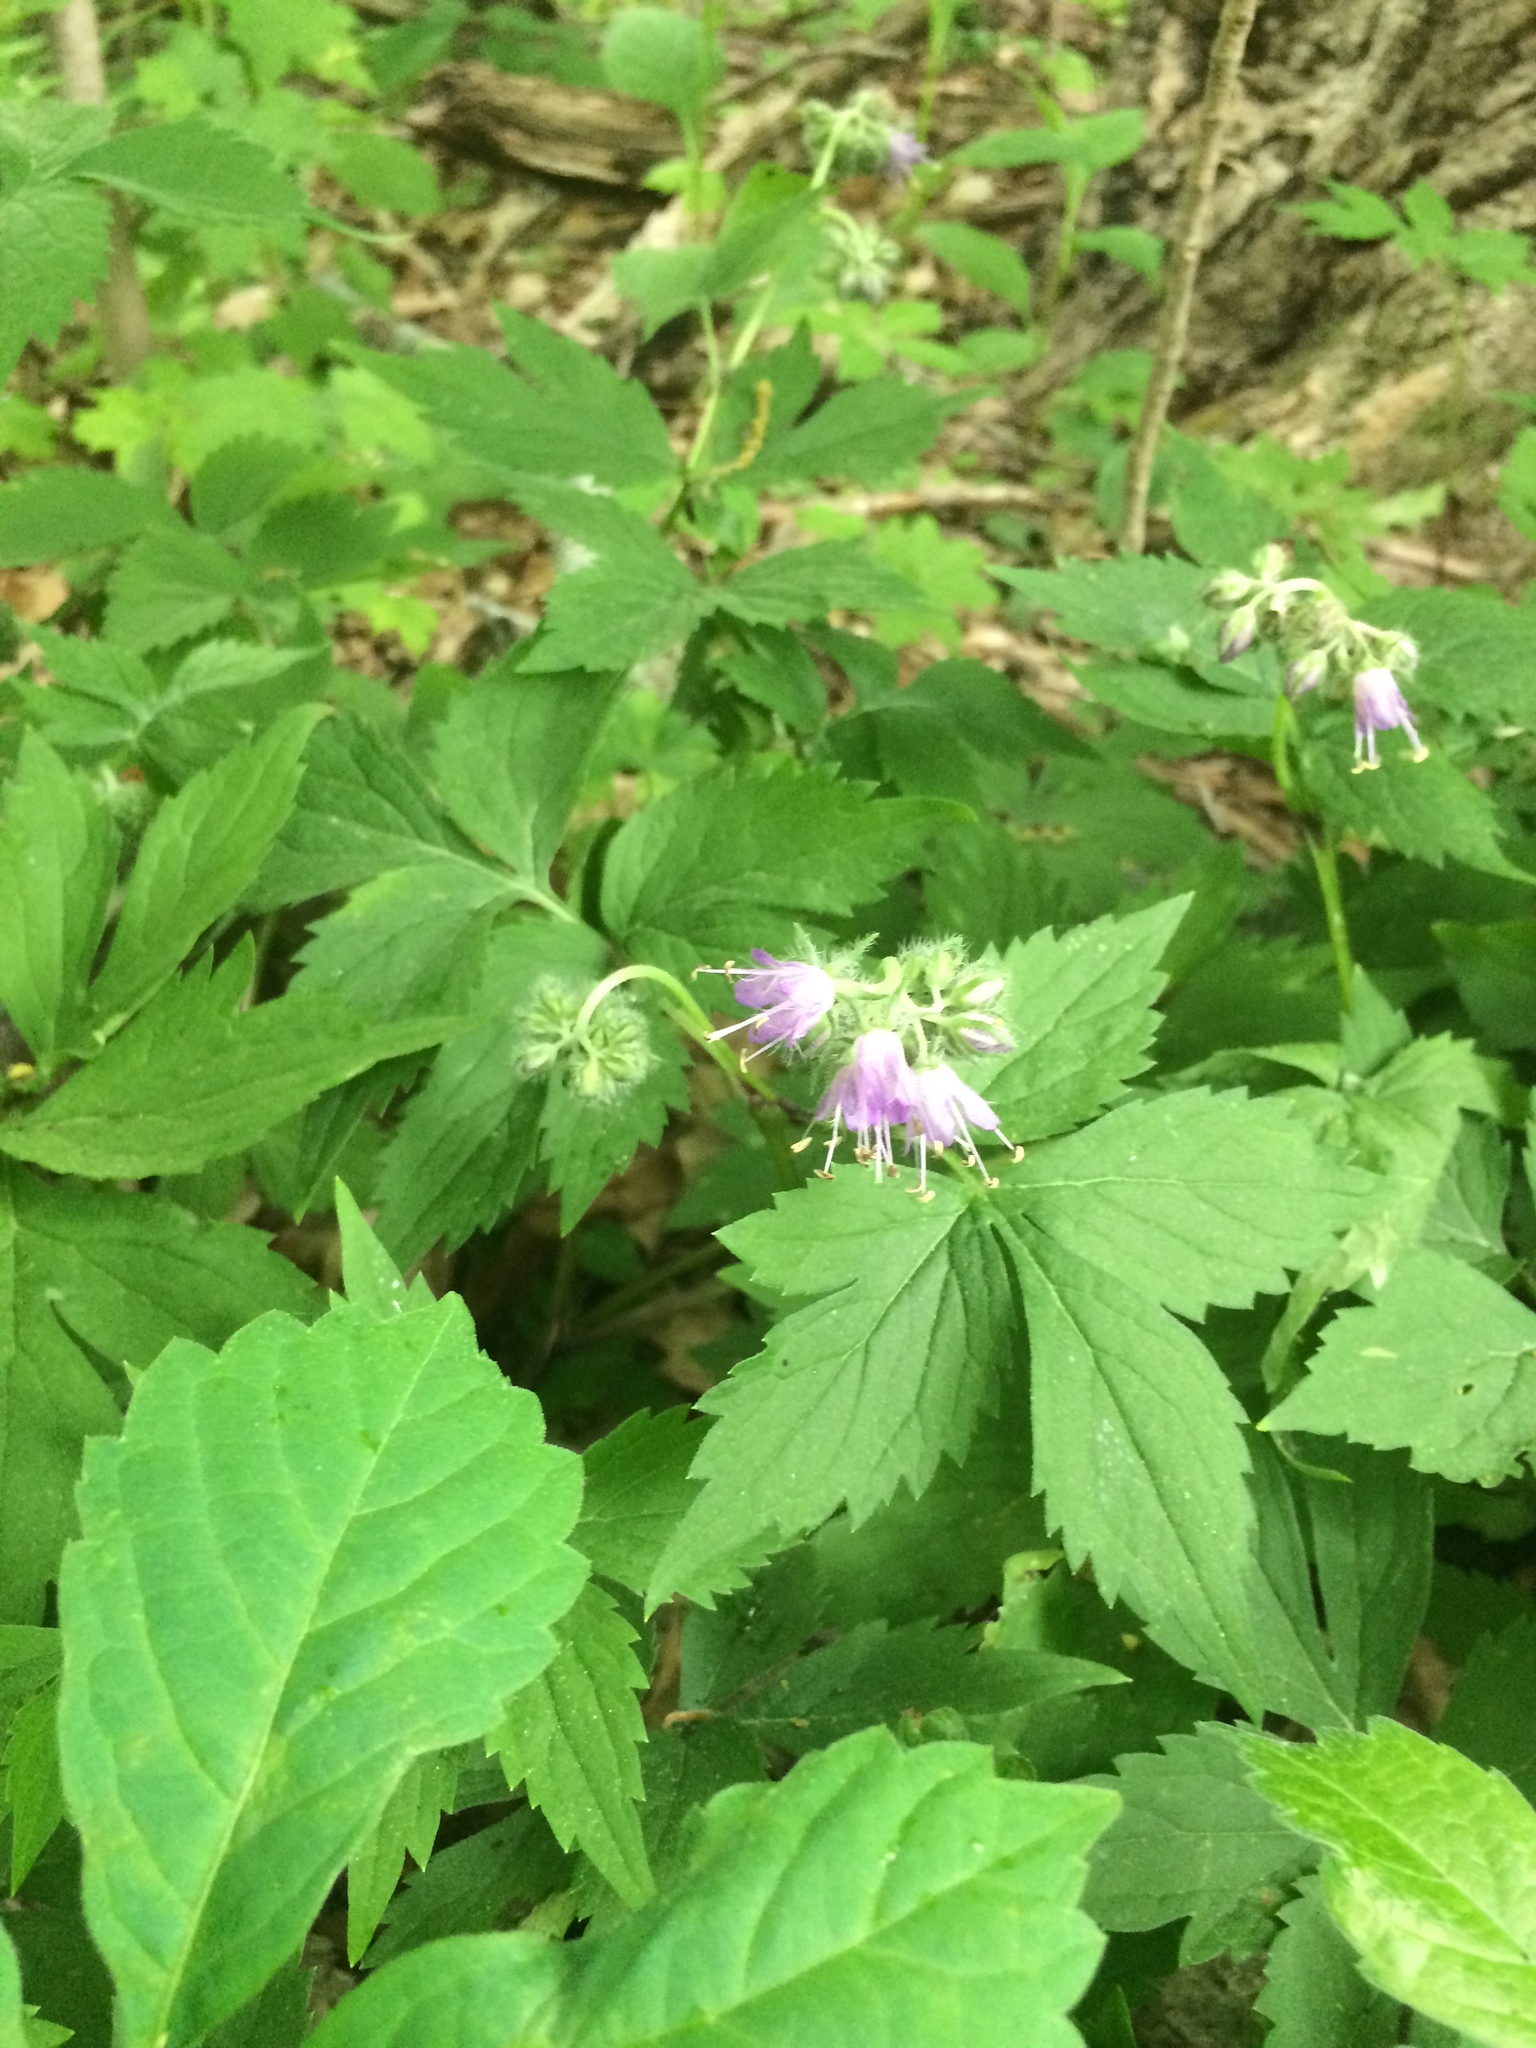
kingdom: Plantae
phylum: Tracheophyta
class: Magnoliopsida
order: Boraginales
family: Hydrophyllaceae
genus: Hydrophyllum
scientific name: Hydrophyllum virginianum
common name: Virginia waterleaf
